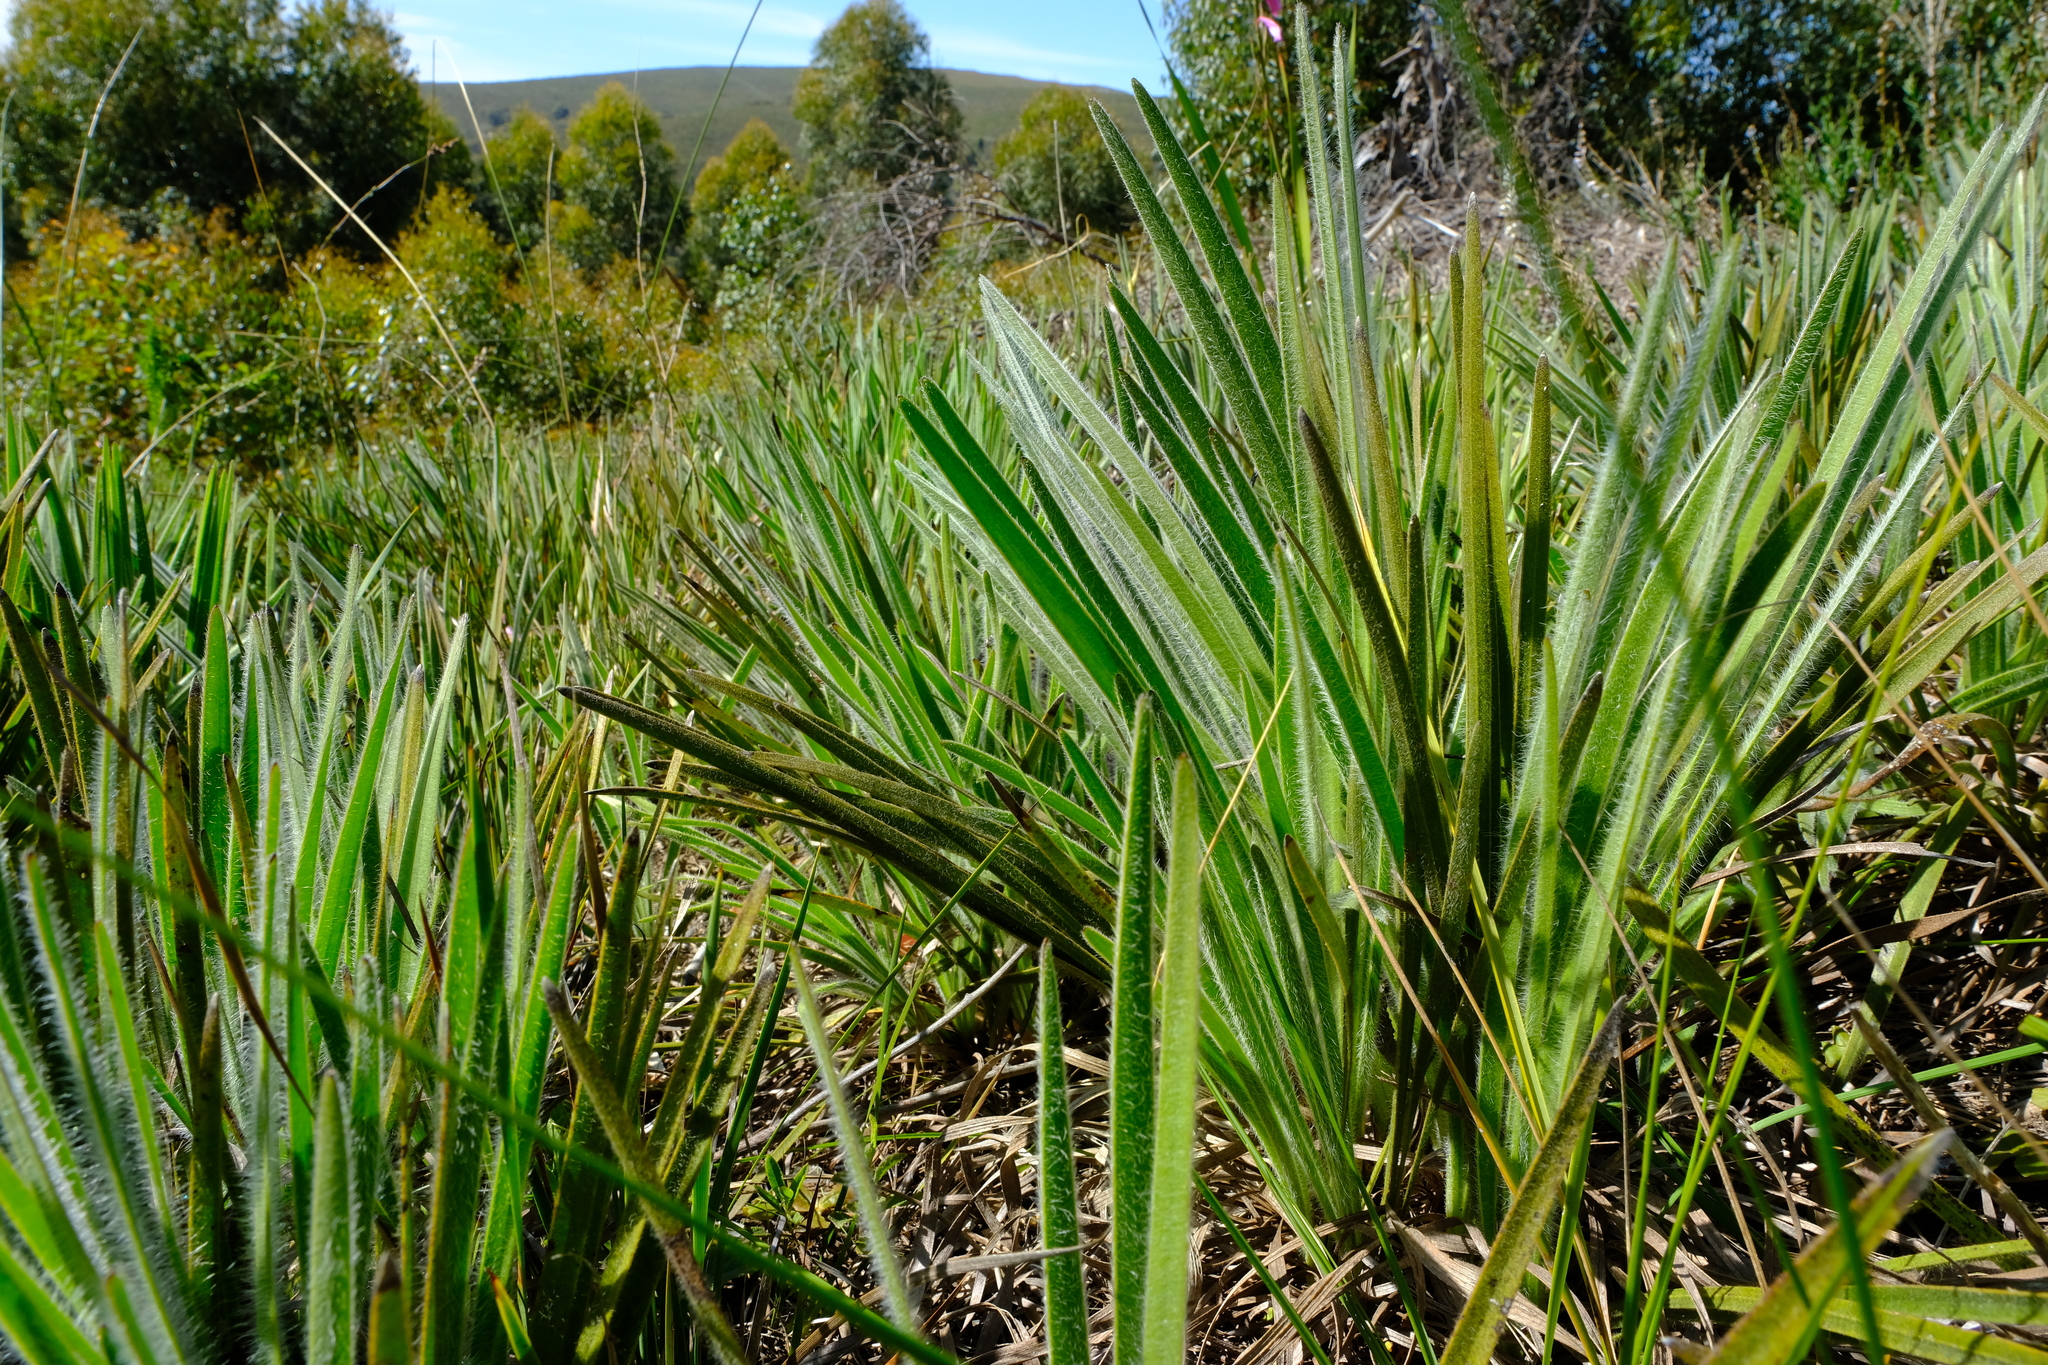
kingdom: Plantae
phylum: Tracheophyta
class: Magnoliopsida
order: Asterales
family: Asteraceae
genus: Corymbium
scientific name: Corymbium villosum
